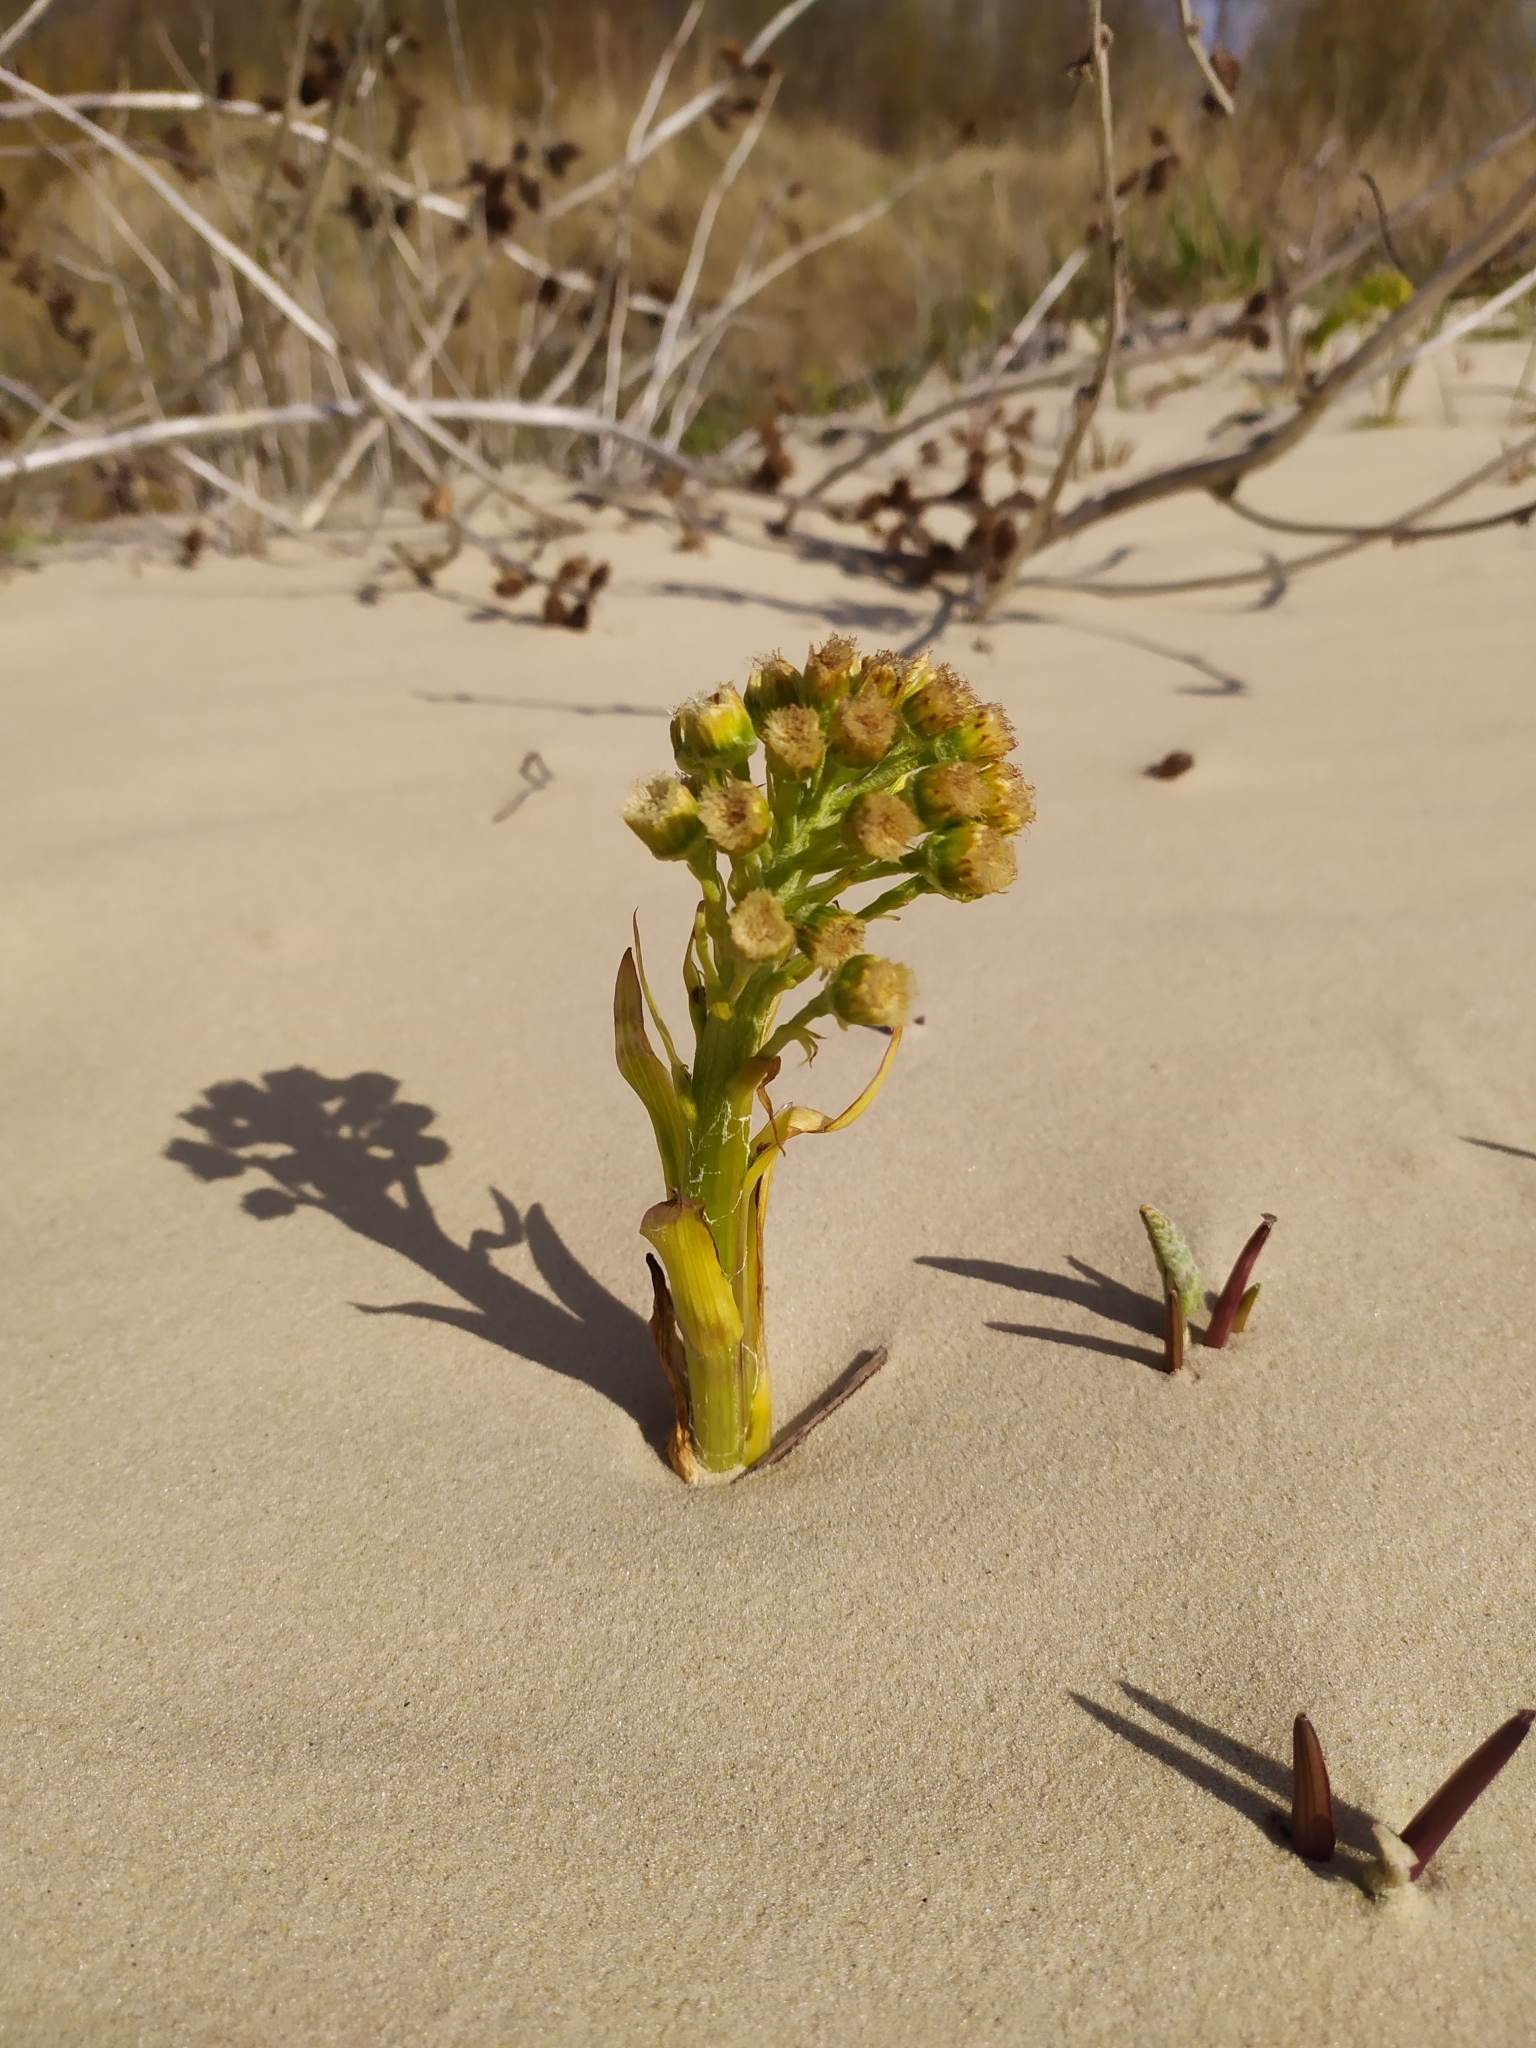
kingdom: Plantae
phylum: Tracheophyta
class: Magnoliopsida
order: Asterales
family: Asteraceae
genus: Petasites
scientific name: Petasites spurius
